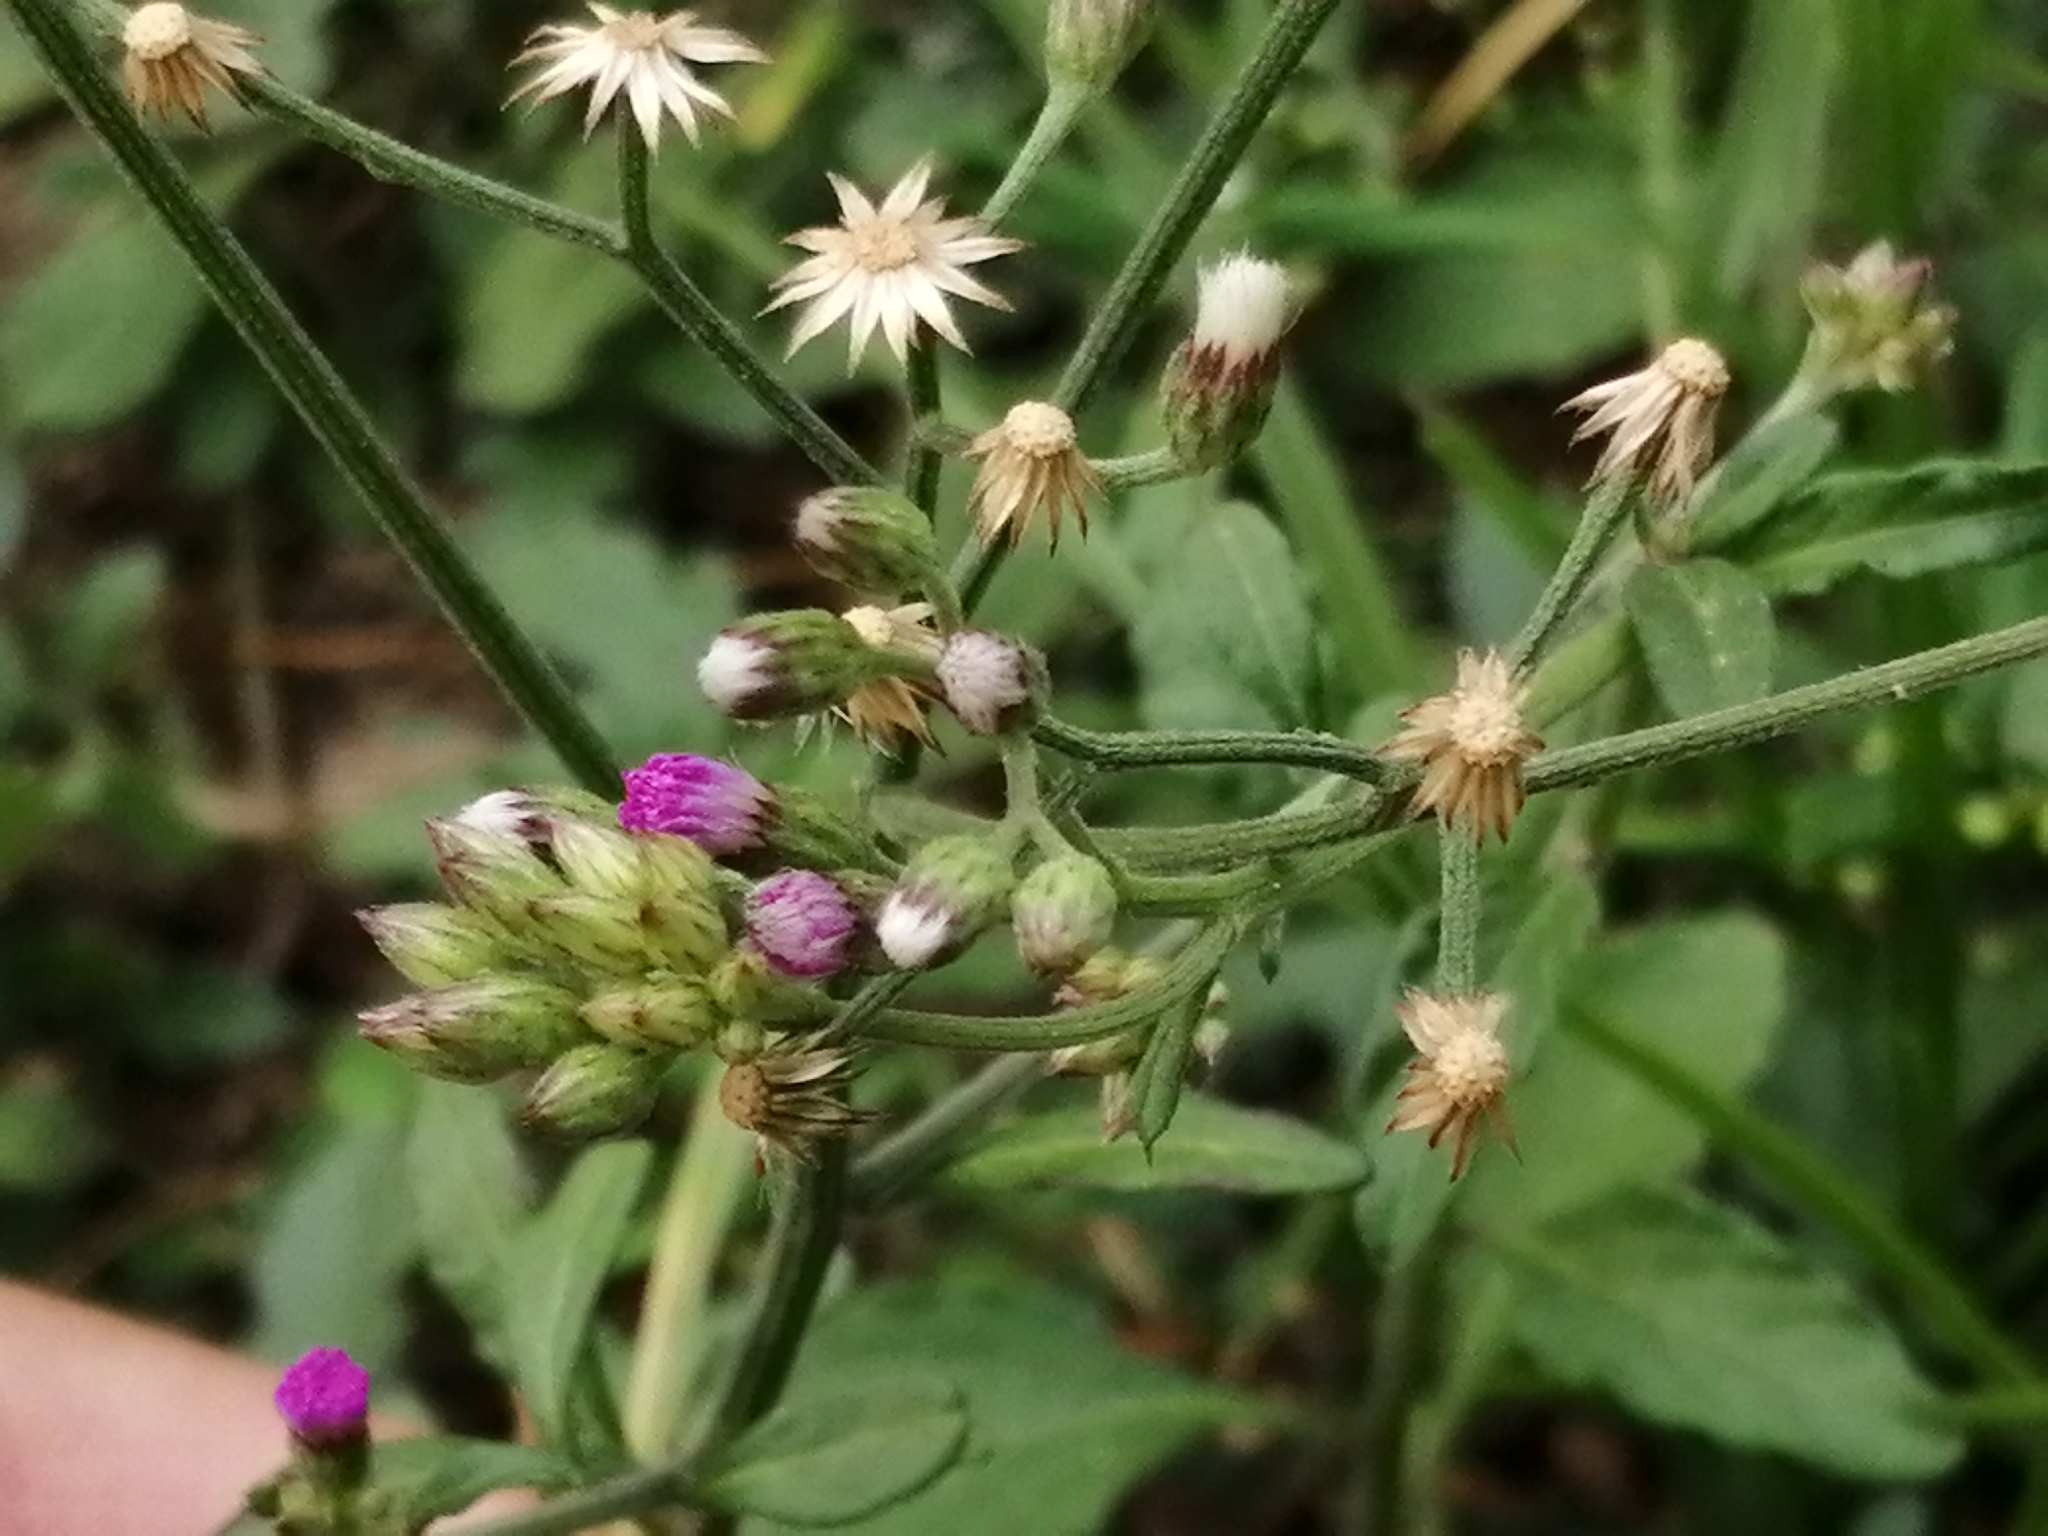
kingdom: Plantae
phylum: Tracheophyta
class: Magnoliopsida
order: Asterales
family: Asteraceae
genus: Cyanthillium
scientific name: Cyanthillium cinereum
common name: Little ironweed
